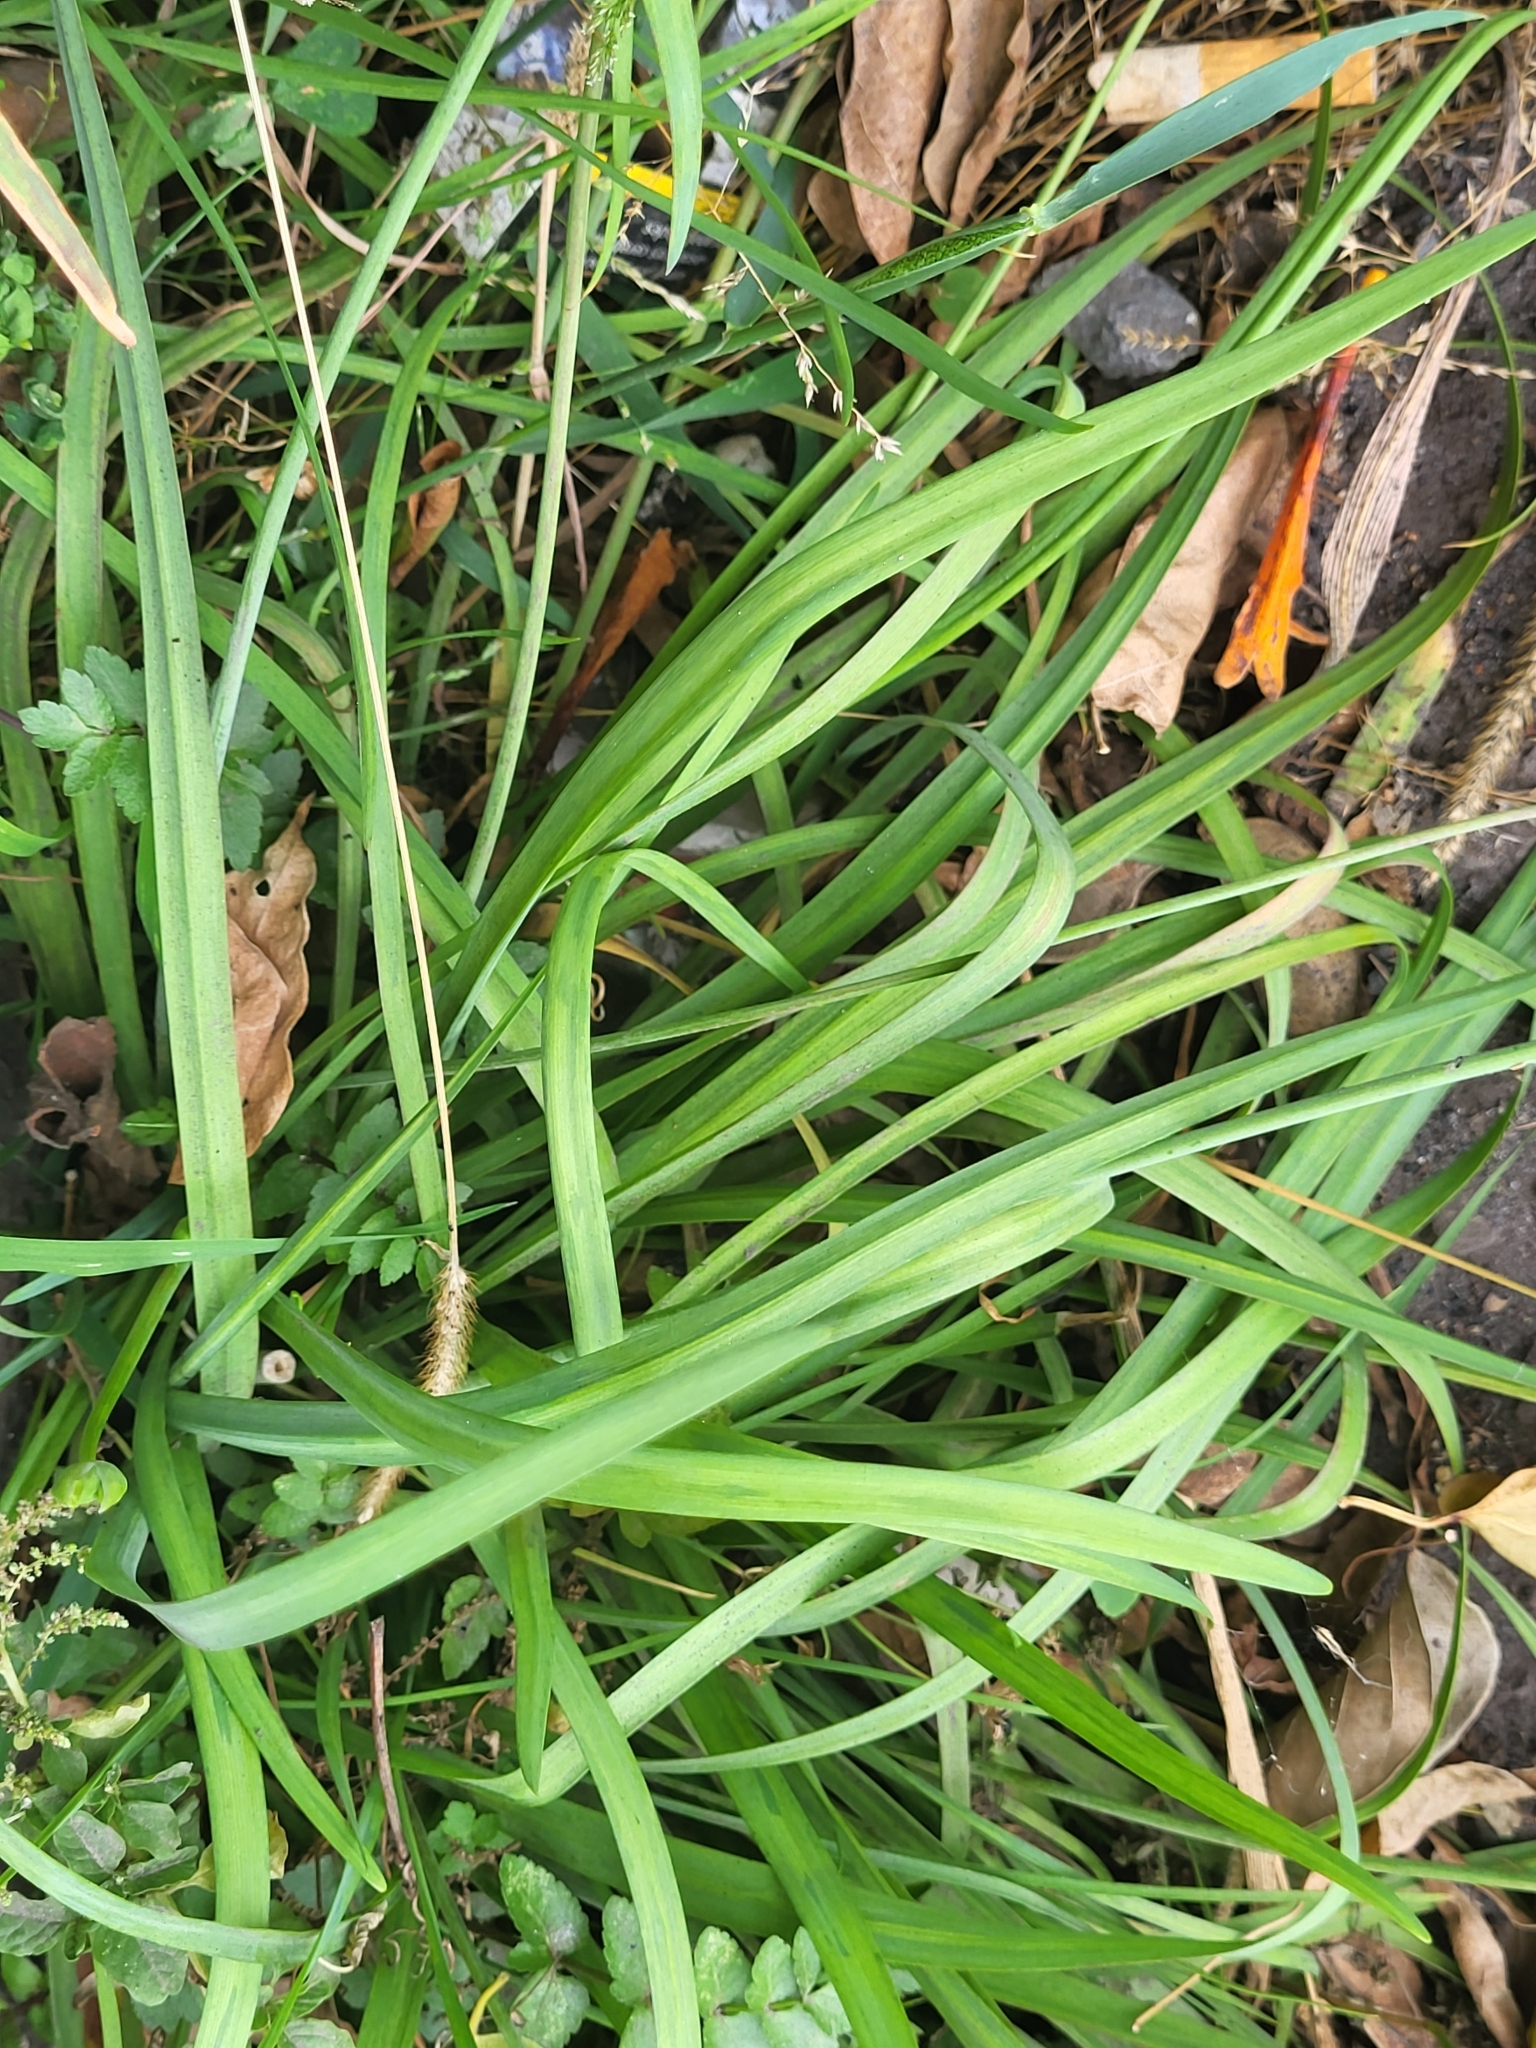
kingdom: Plantae
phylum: Tracheophyta
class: Liliopsida
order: Asparagales
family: Amaryllidaceae
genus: Nothoscordum
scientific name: Nothoscordum gracile
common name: Slender false garlic
